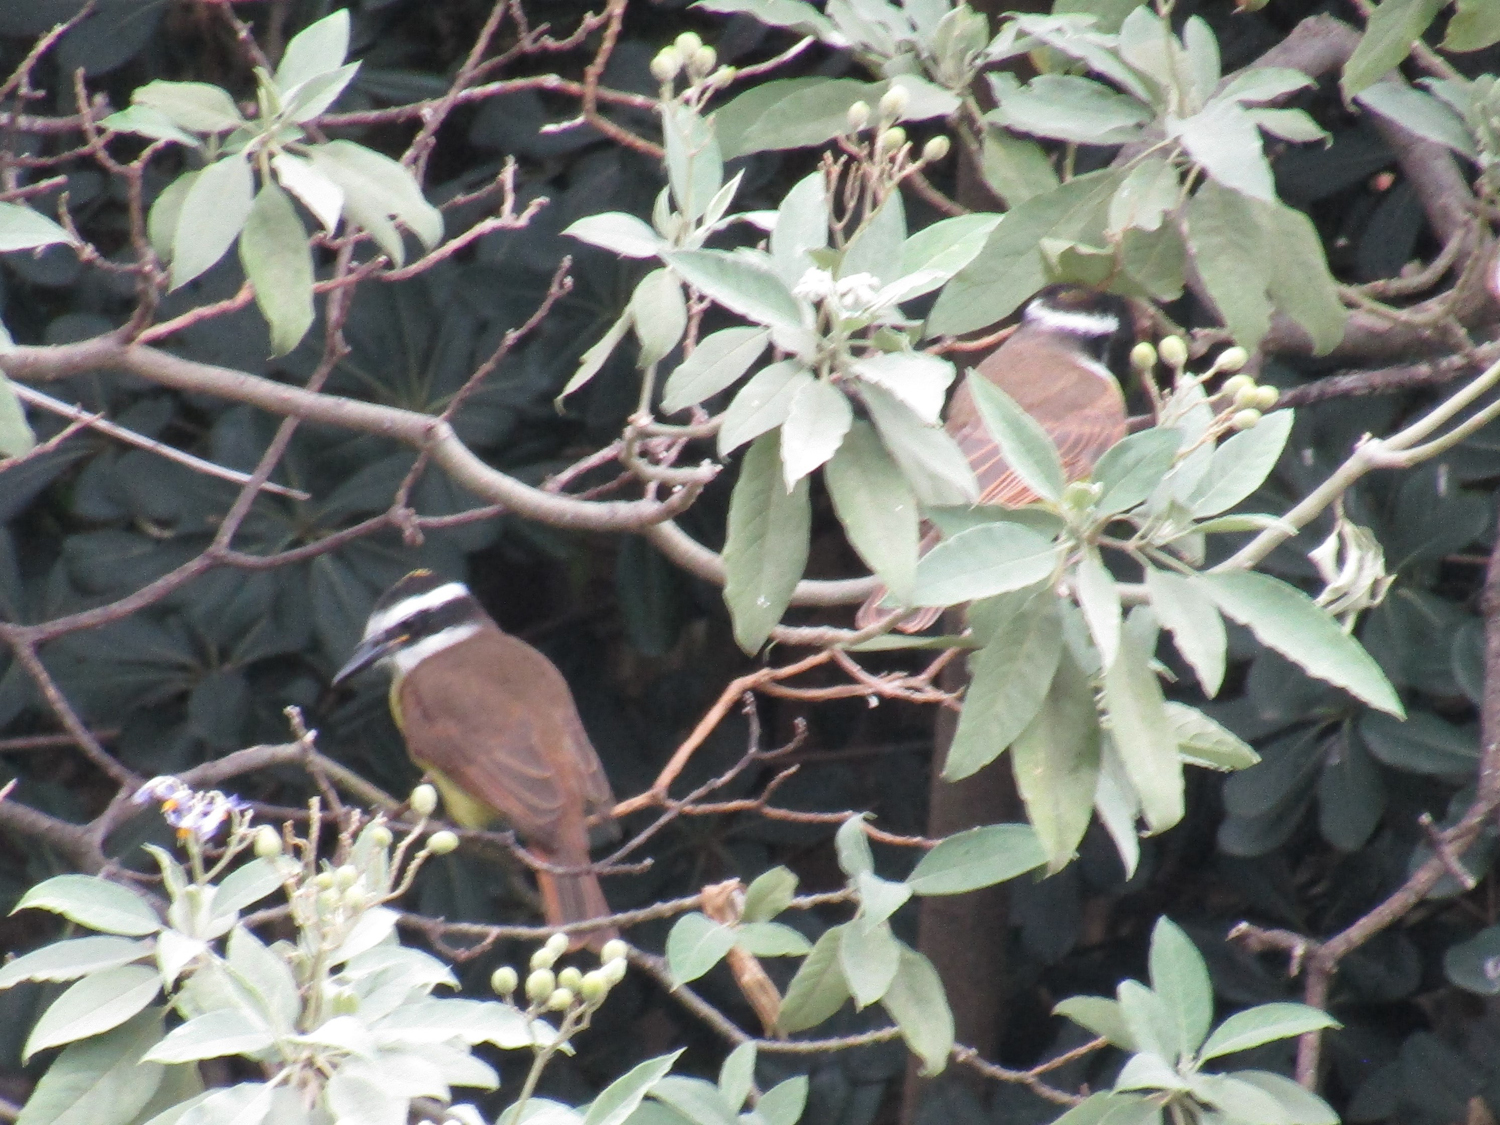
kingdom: Animalia
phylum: Chordata
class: Aves
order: Passeriformes
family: Tyrannidae
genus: Pitangus
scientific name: Pitangus sulphuratus
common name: Great kiskadee
